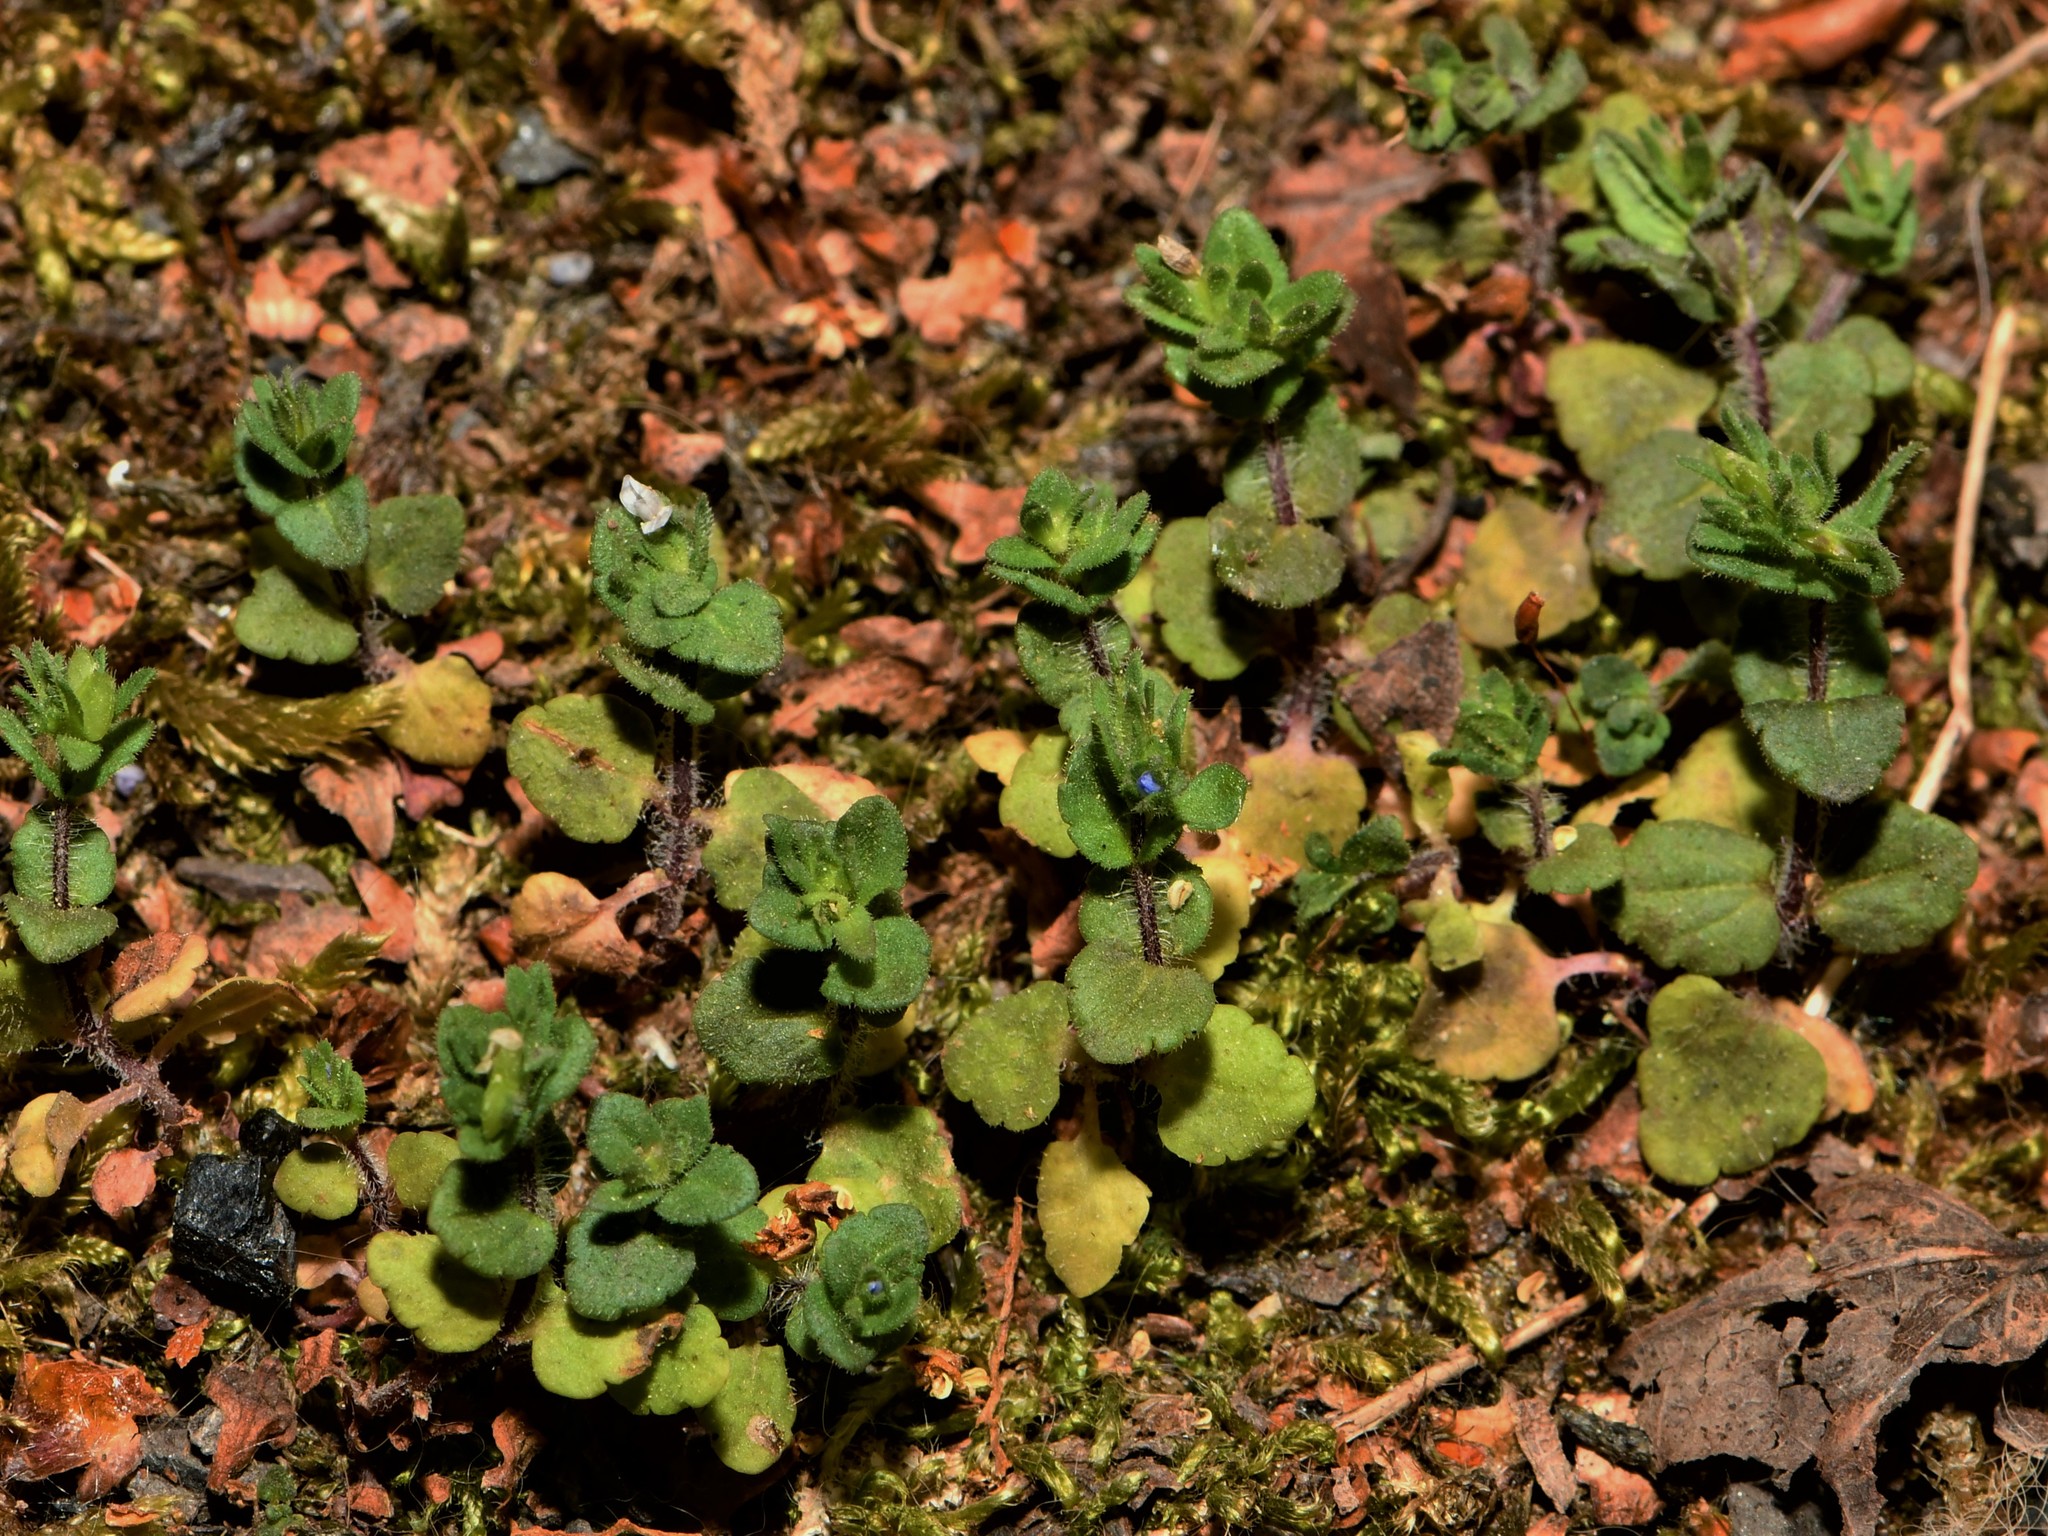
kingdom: Plantae
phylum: Tracheophyta
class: Magnoliopsida
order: Lamiales
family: Plantaginaceae
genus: Veronica
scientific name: Veronica arvensis
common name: Corn speedwell
